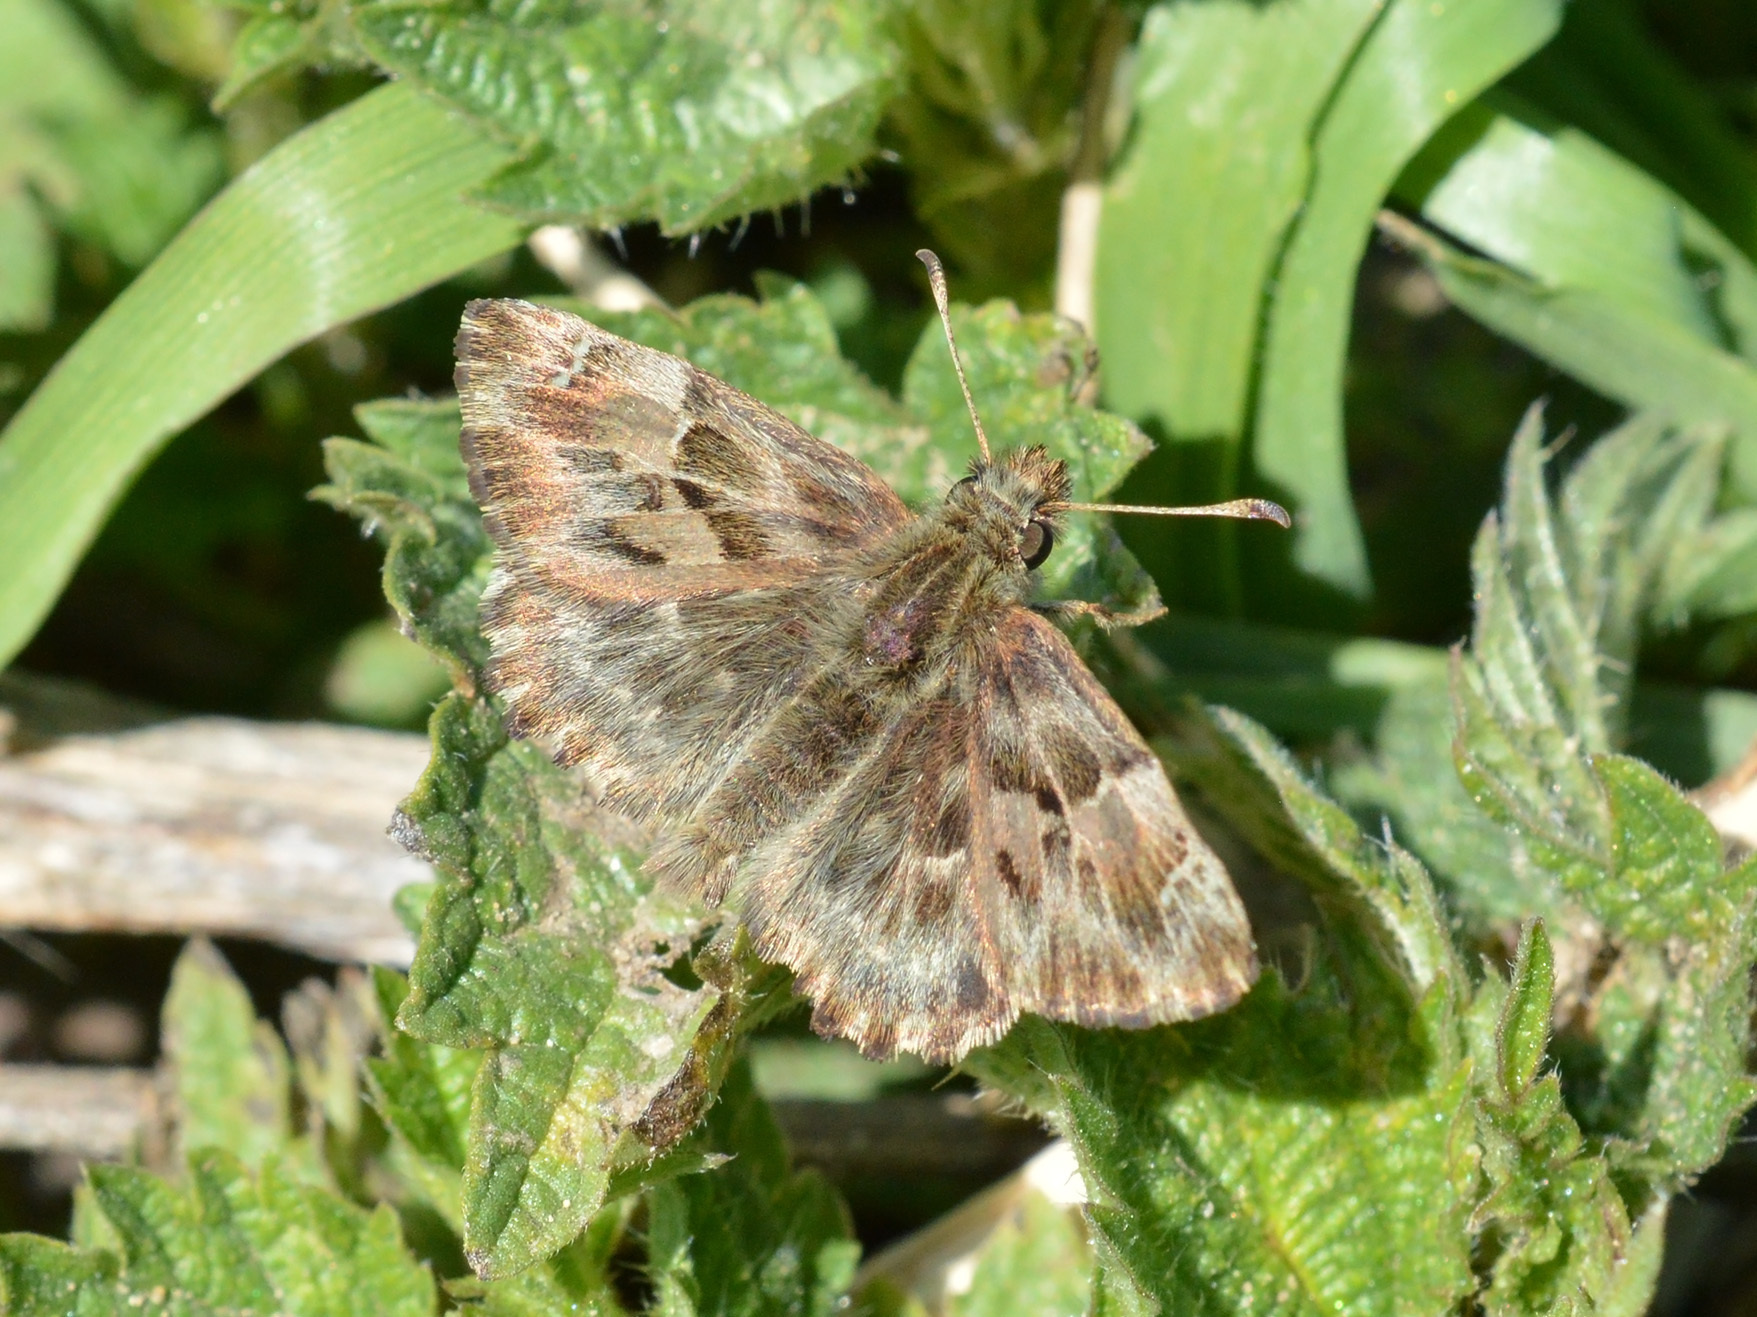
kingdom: Animalia
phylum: Arthropoda
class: Insecta
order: Lepidoptera
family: Hesperiidae
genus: Carcharodus
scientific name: Carcharodus alceae
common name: Mallow skipper
